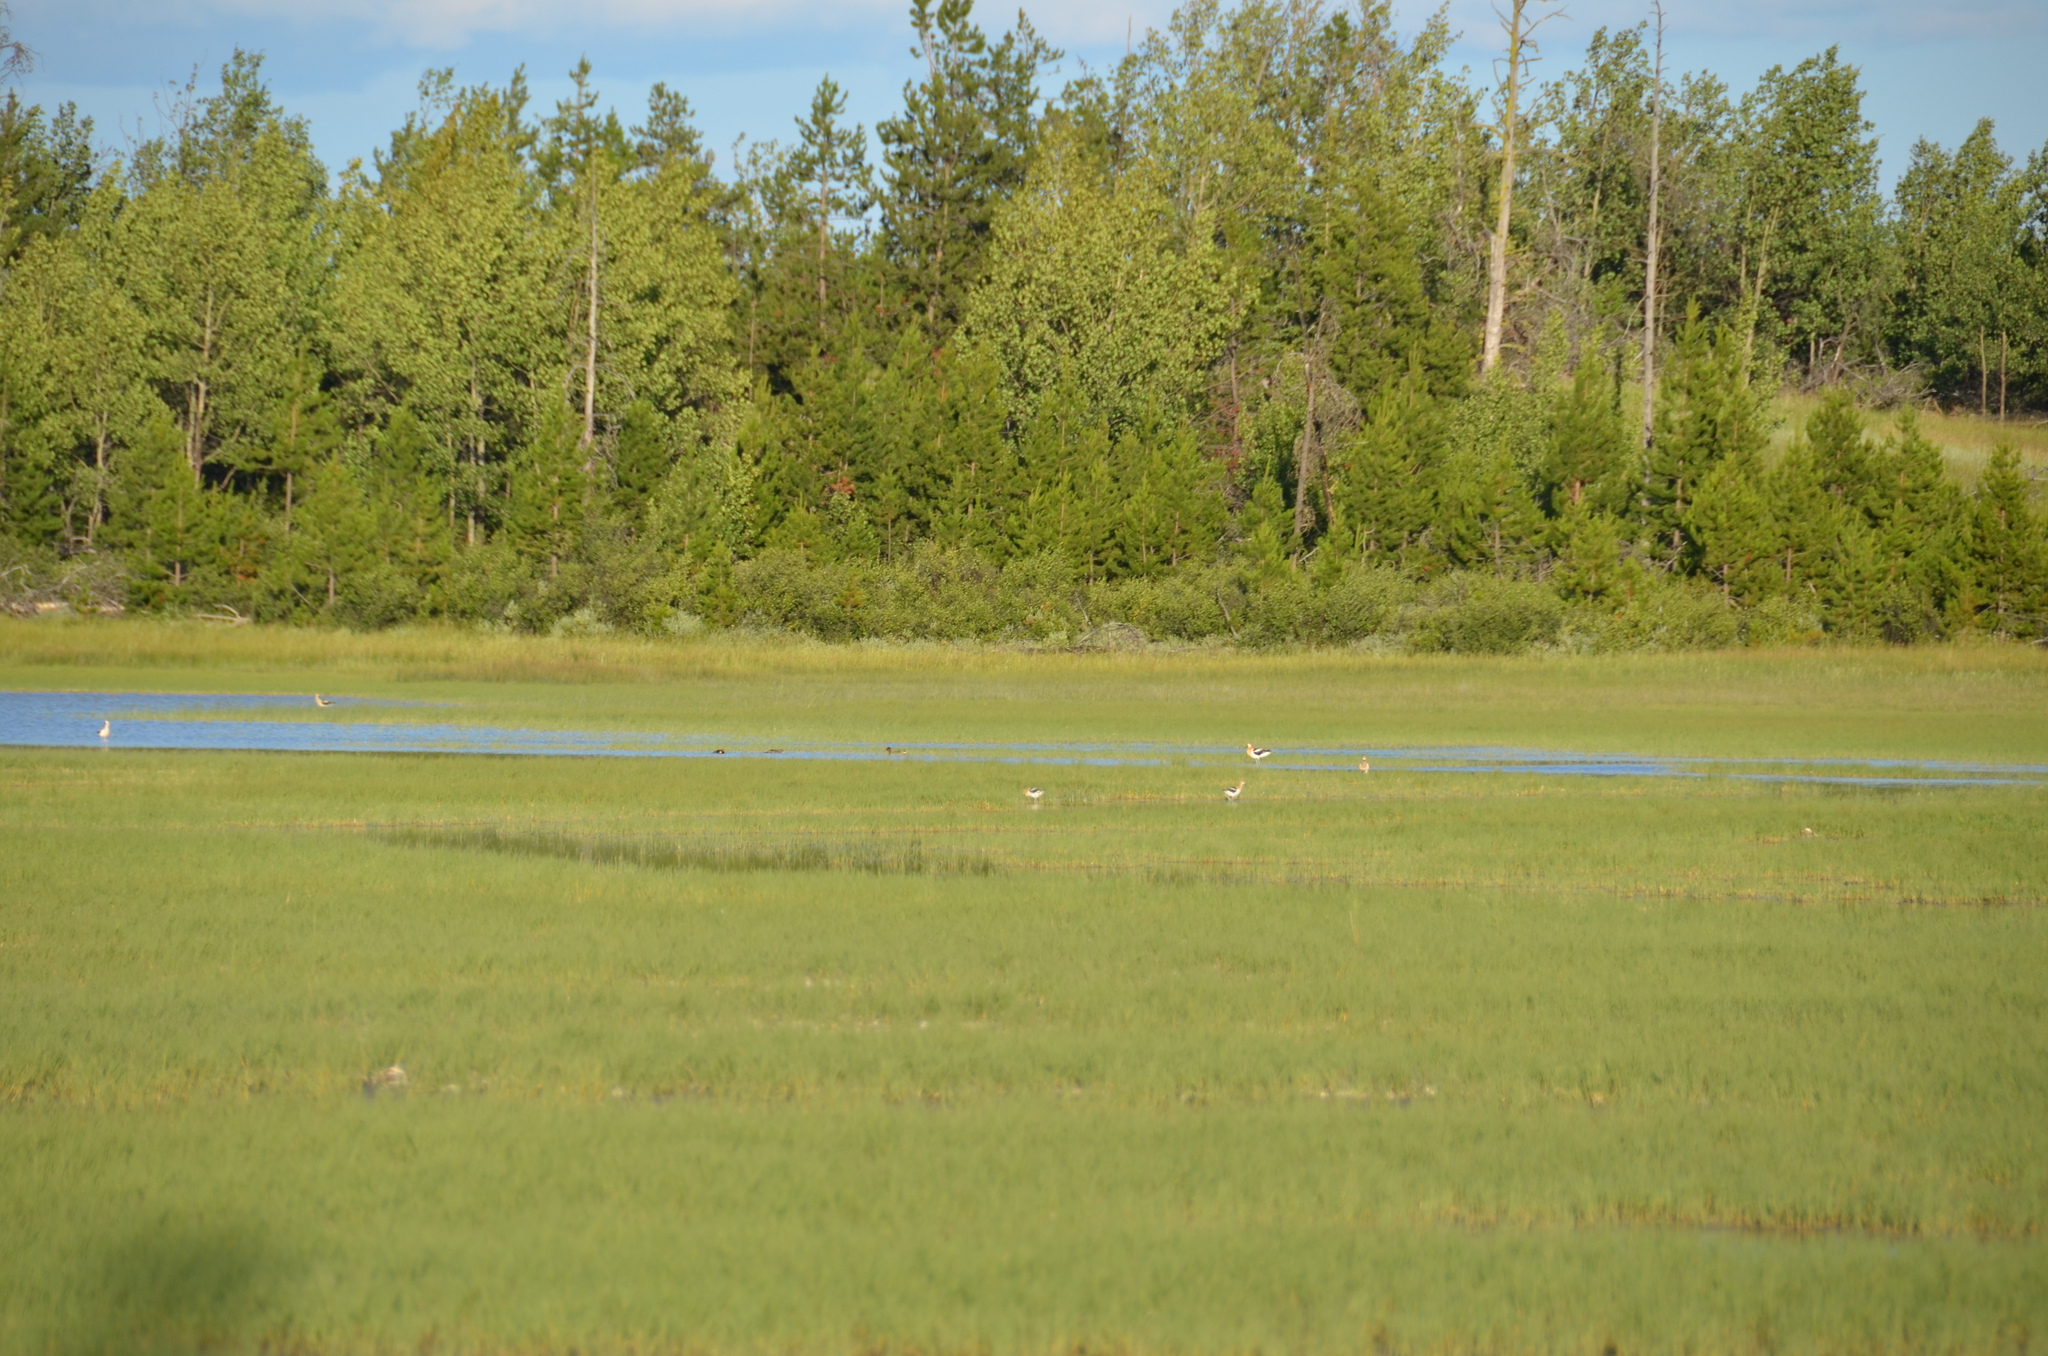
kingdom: Animalia
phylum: Chordata
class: Aves
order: Charadriiformes
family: Recurvirostridae
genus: Recurvirostra
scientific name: Recurvirostra americana
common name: American avocet
